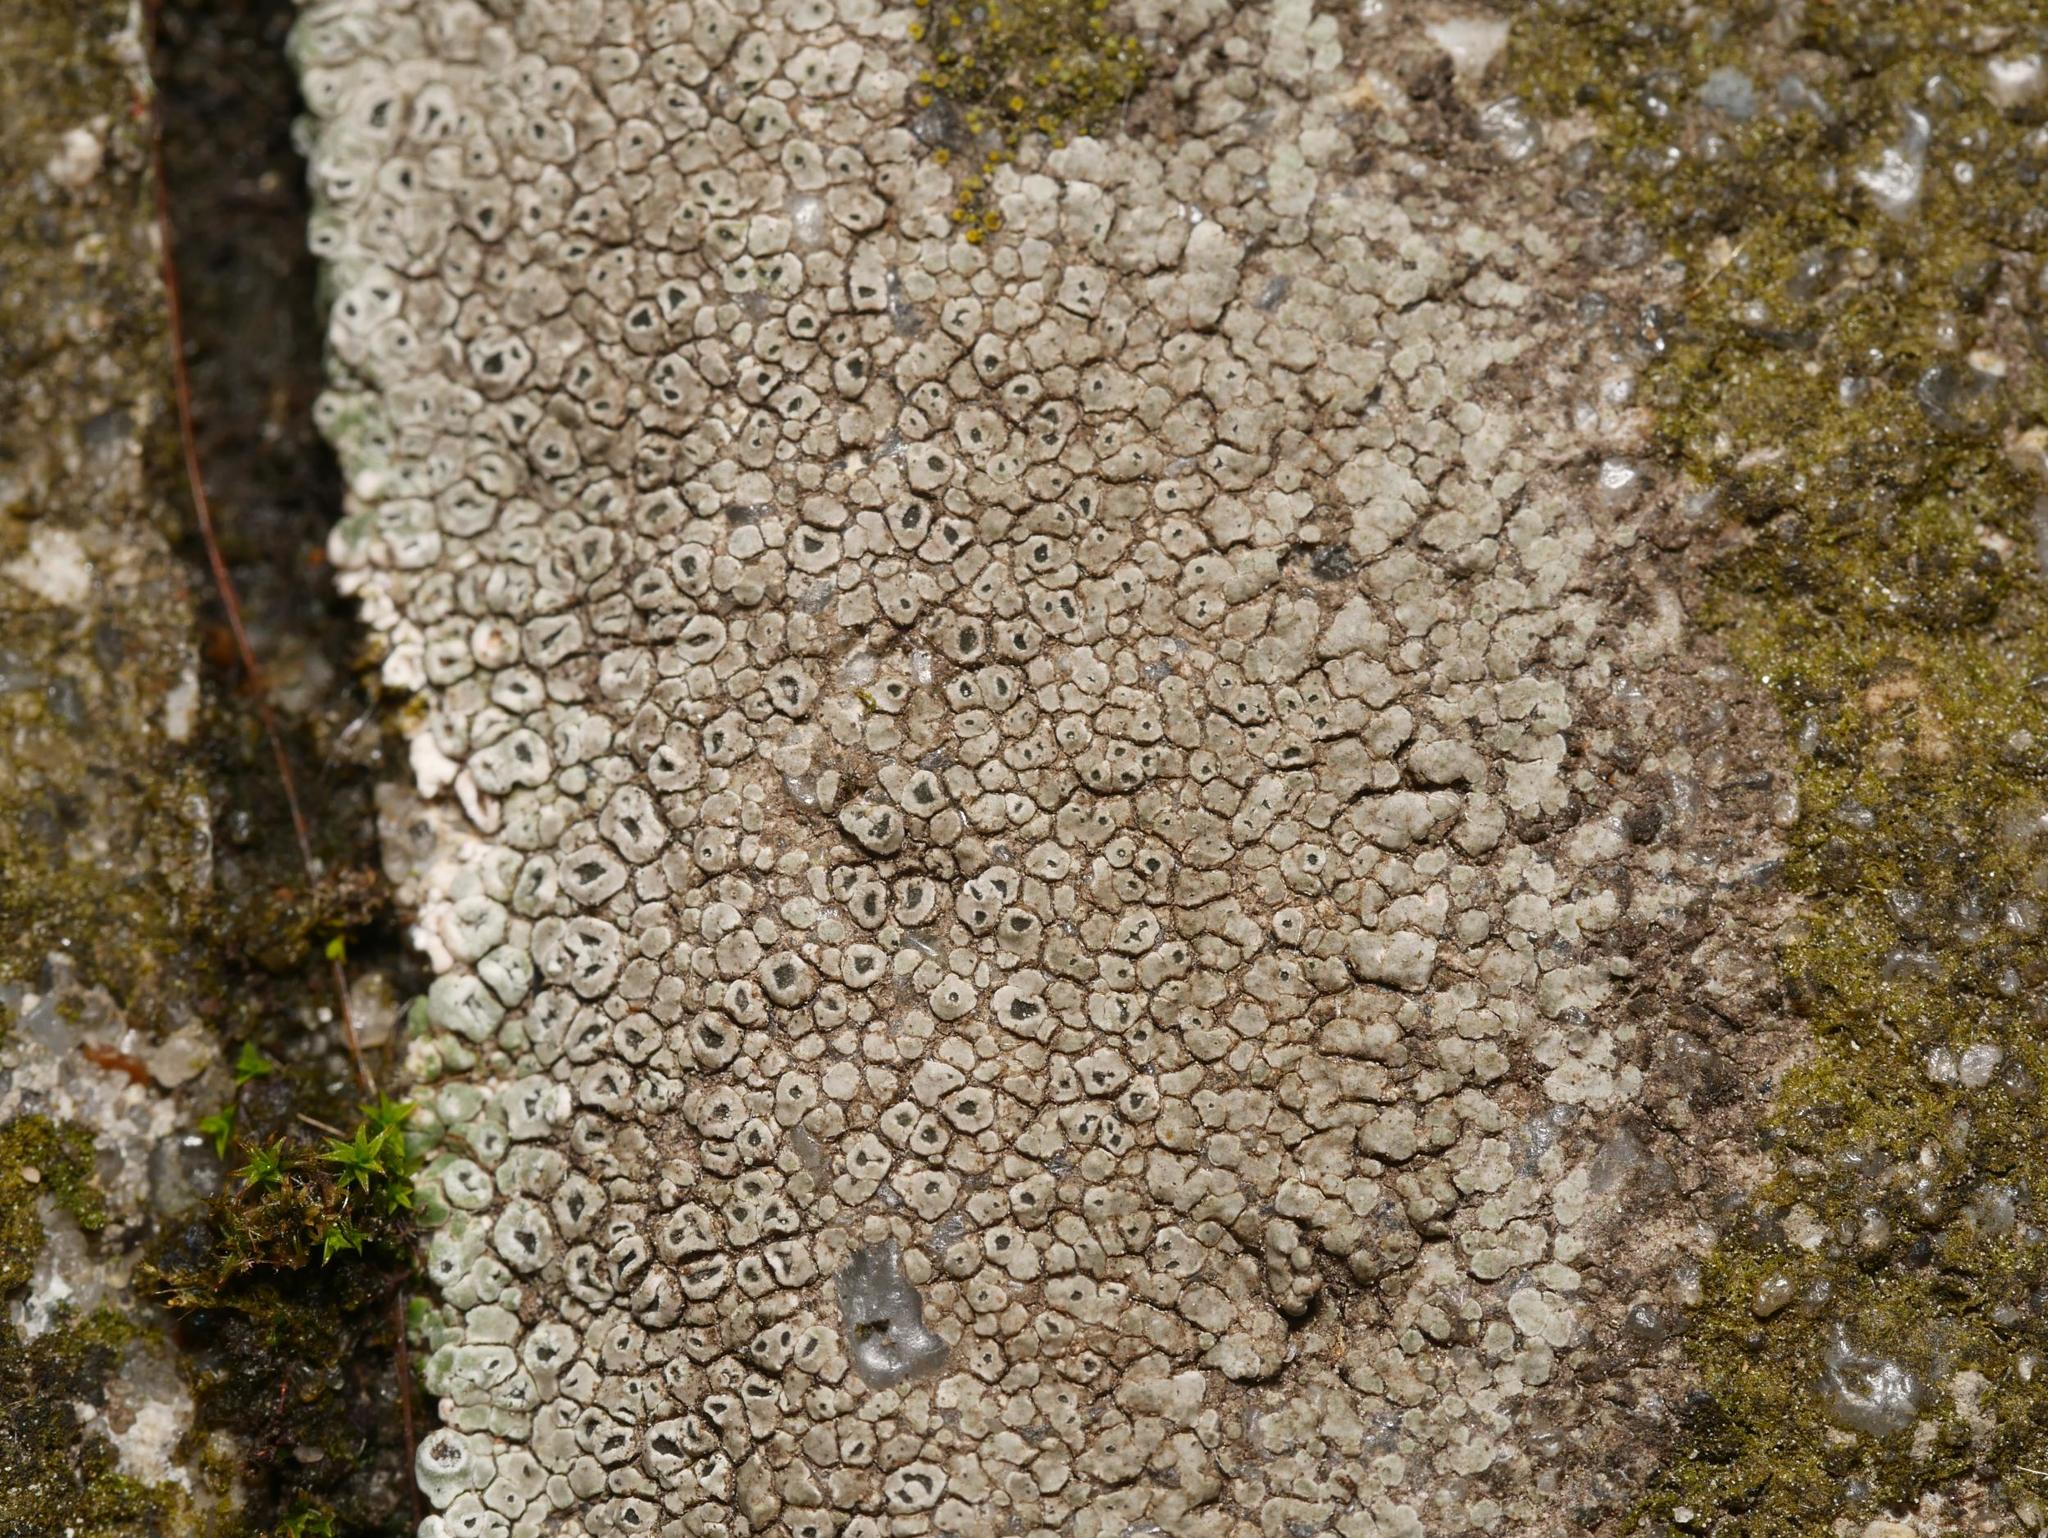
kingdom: Fungi
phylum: Ascomycota
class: Lecanoromycetes
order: Pertusariales
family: Megasporaceae
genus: Circinaria
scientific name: Circinaria contorta
